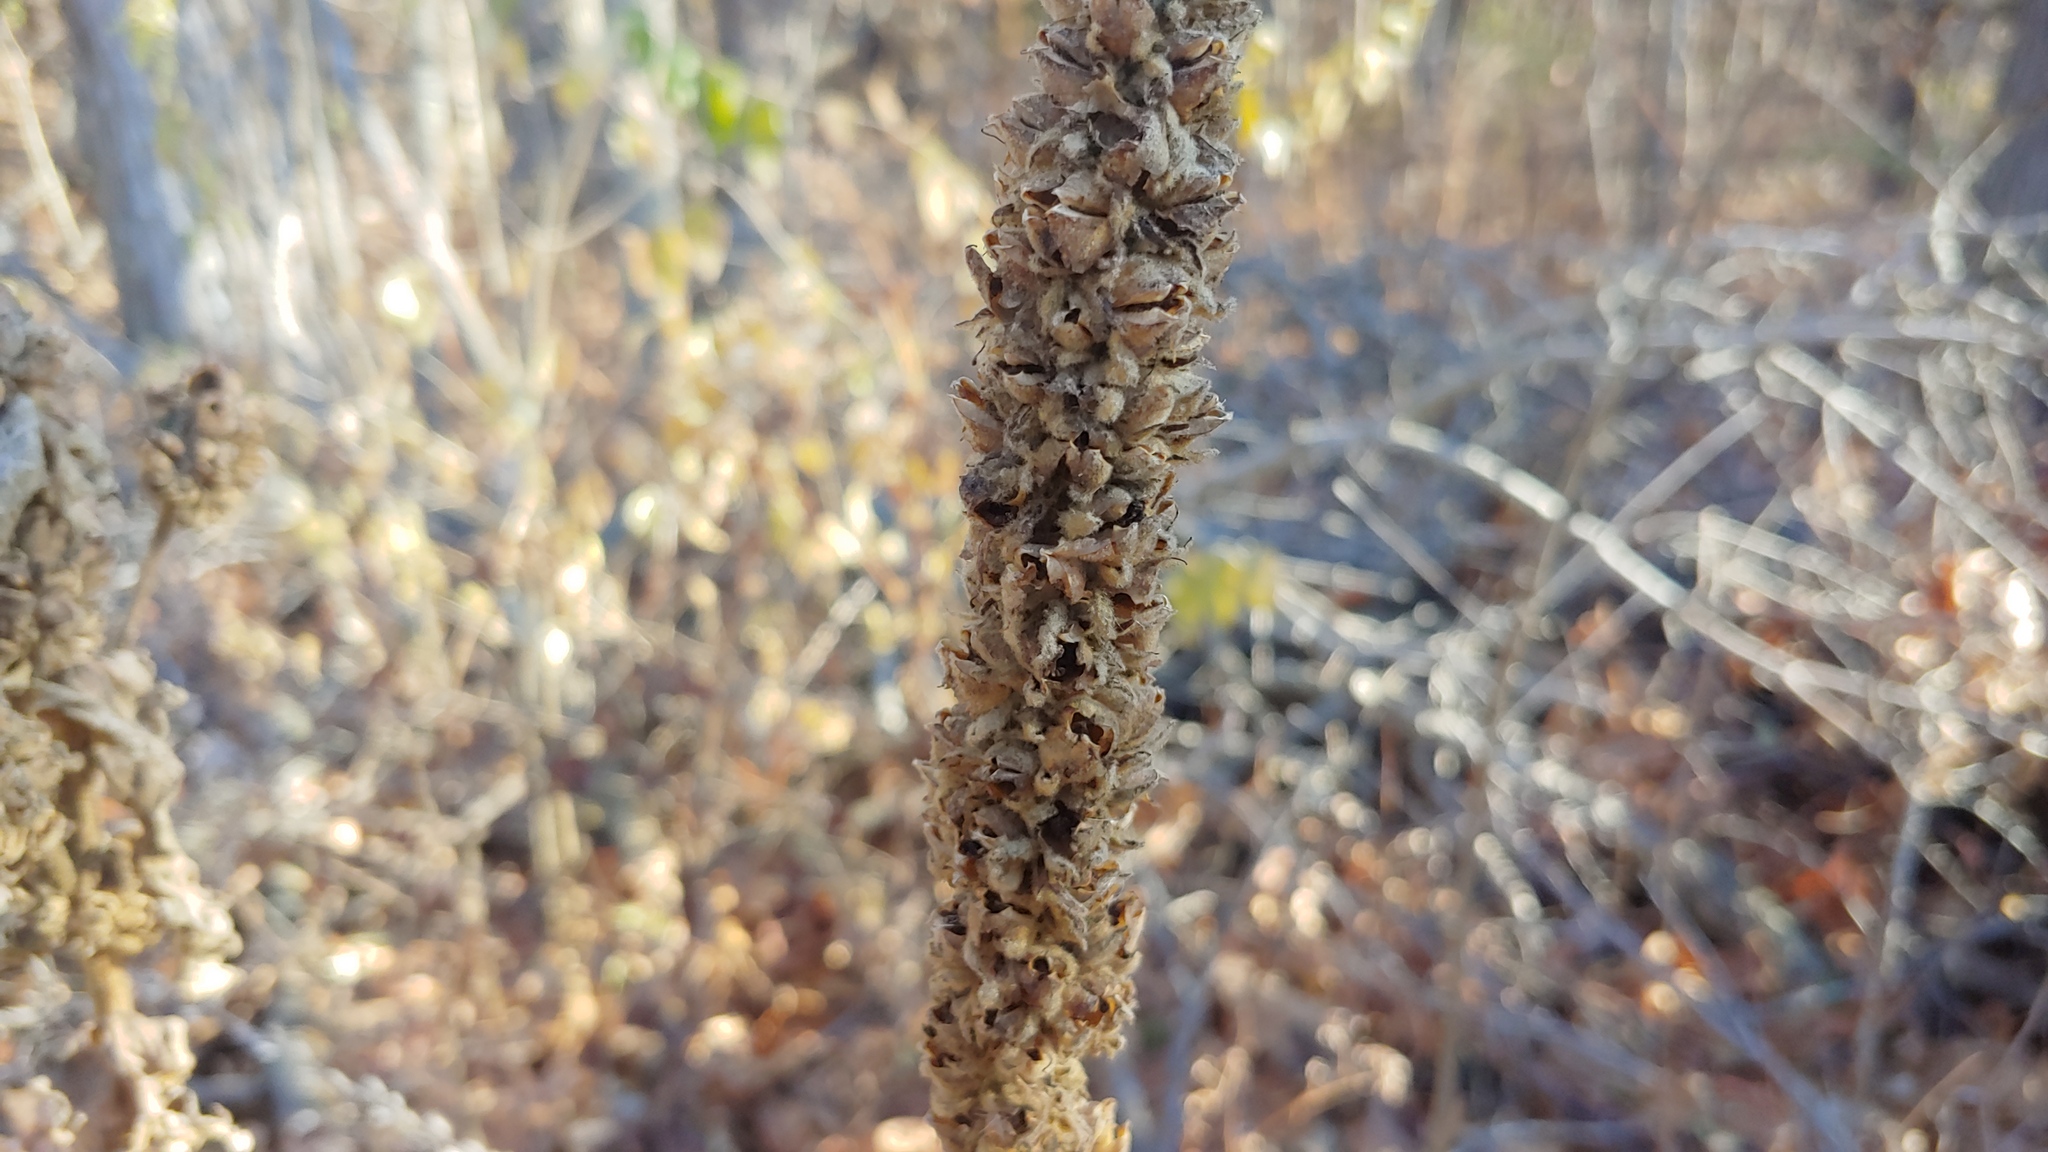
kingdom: Plantae
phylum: Tracheophyta
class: Magnoliopsida
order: Lamiales
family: Scrophulariaceae
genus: Verbascum
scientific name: Verbascum thapsus
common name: Common mullein
